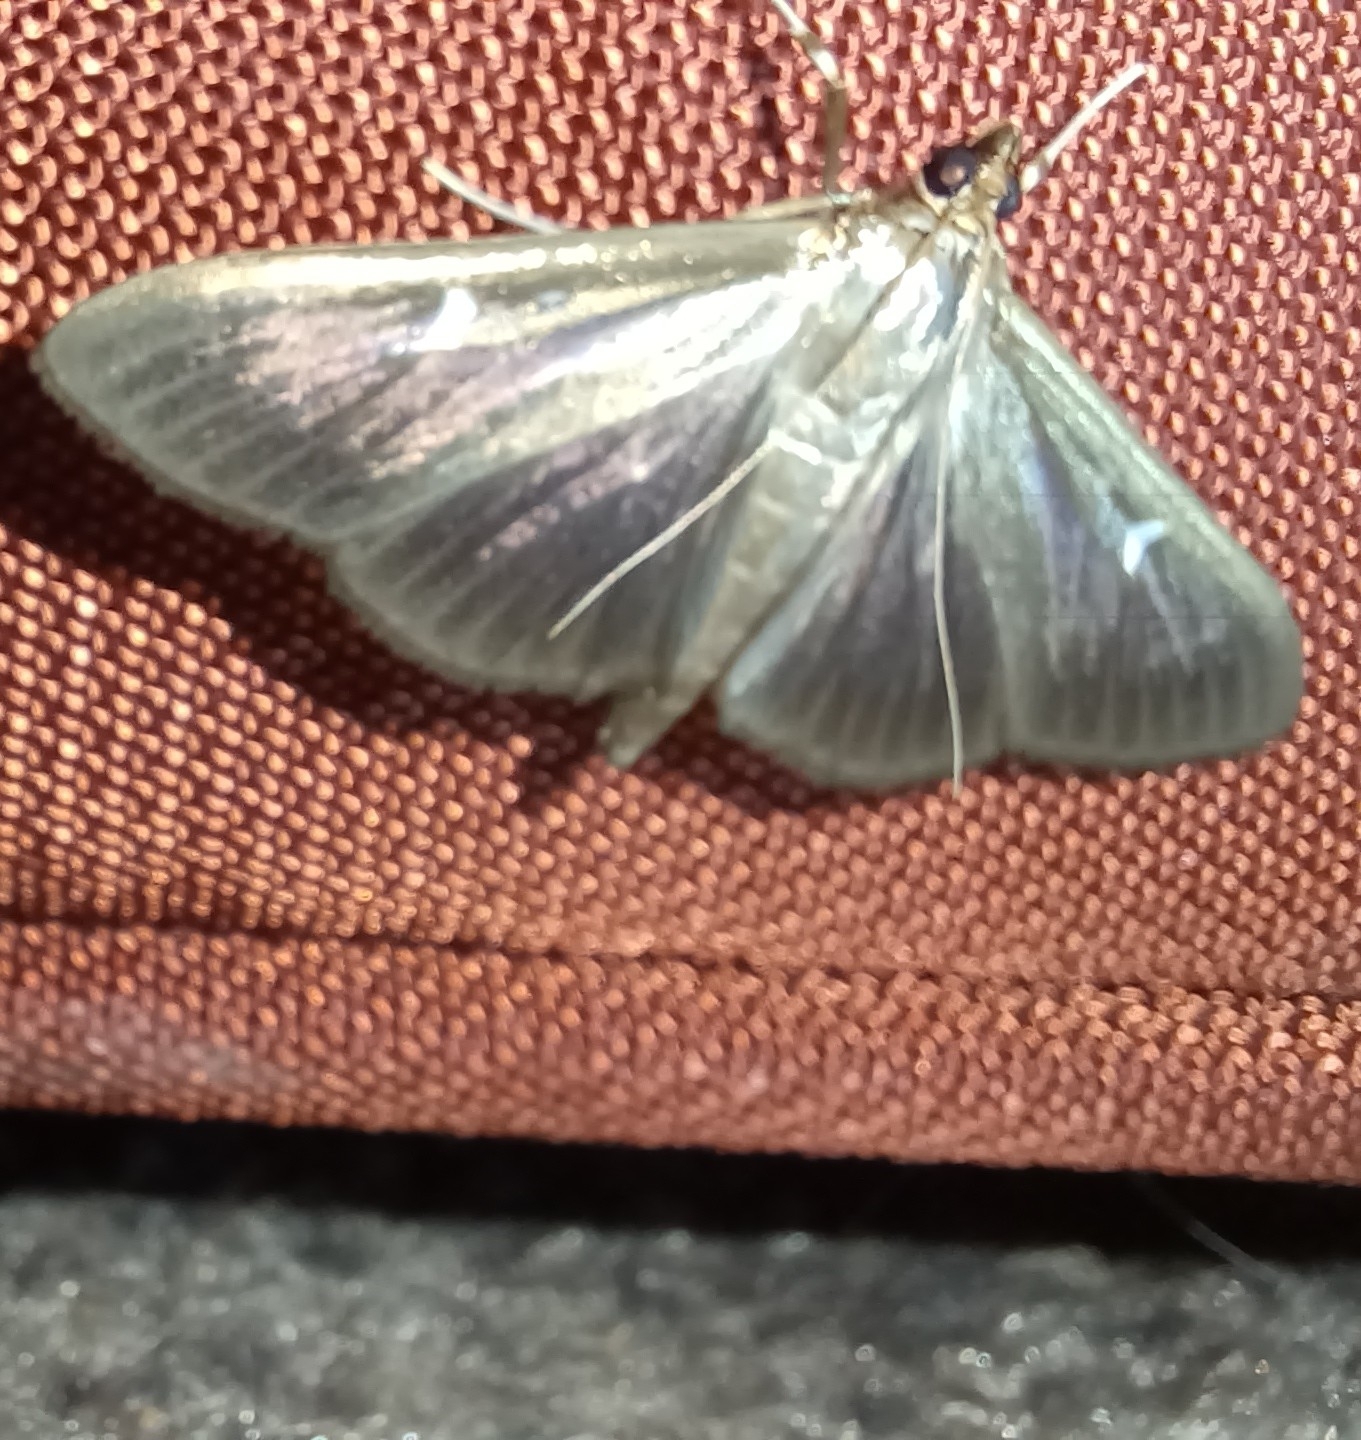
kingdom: Animalia
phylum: Arthropoda
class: Insecta
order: Lepidoptera
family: Crambidae
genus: Cydalima
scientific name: Cydalima perspectalis
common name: Box tree moth
